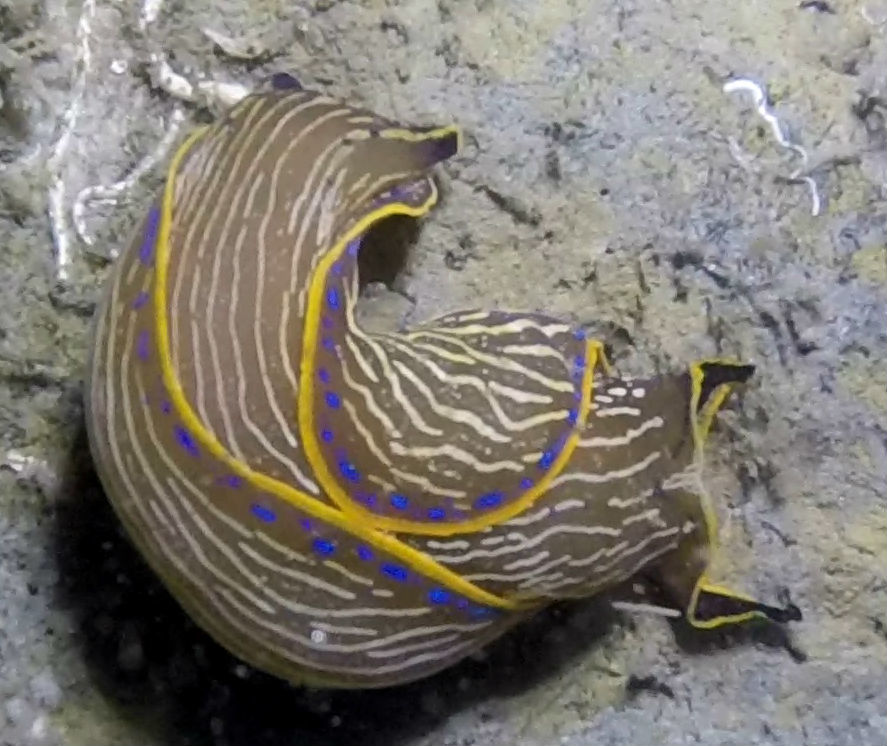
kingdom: Animalia
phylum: Mollusca
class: Gastropoda
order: Cephalaspidea
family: Aglajidae
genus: Navanax
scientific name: Navanax inermis
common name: California aglaja
